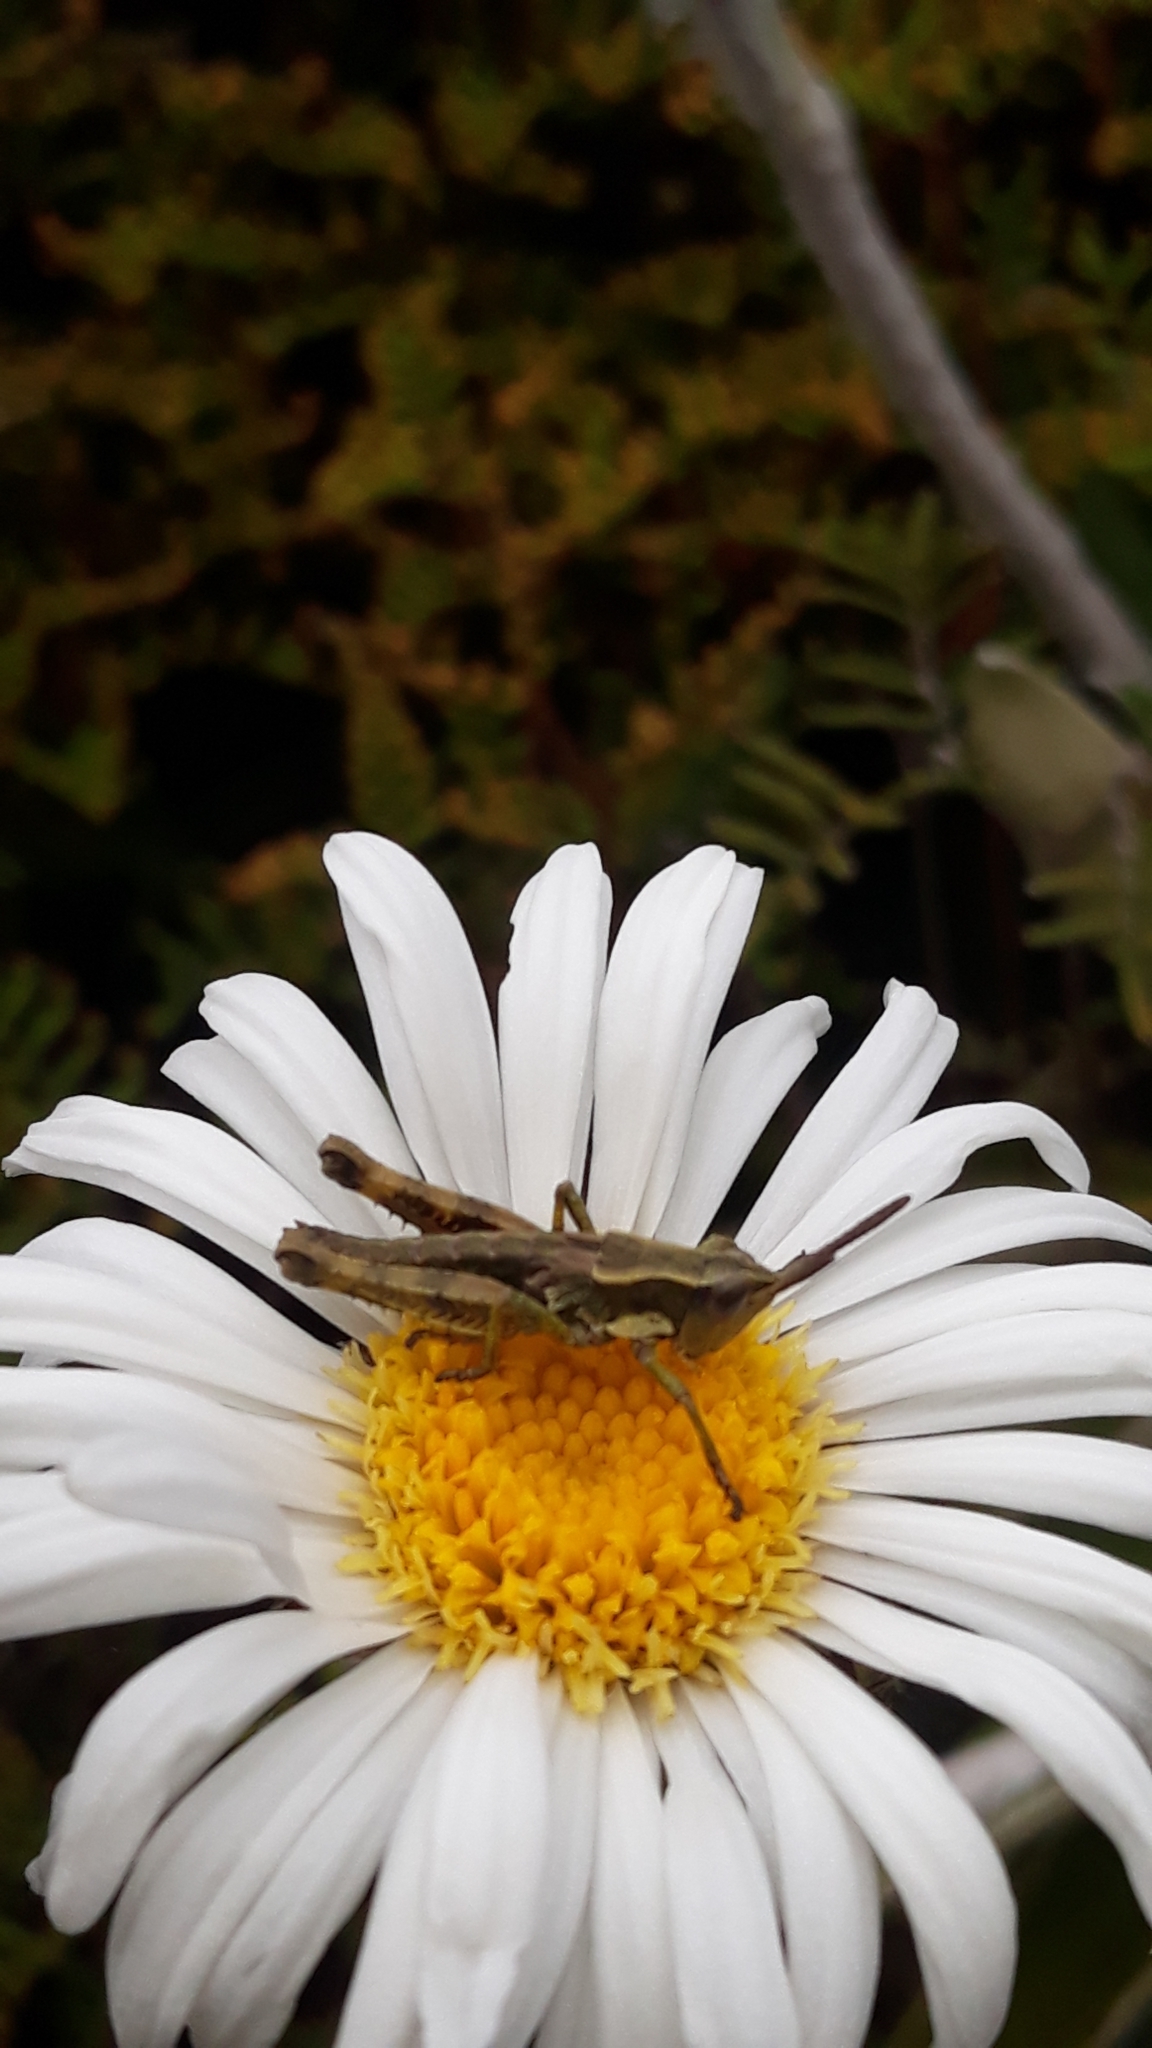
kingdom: Animalia
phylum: Arthropoda
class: Insecta
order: Orthoptera
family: Acrididae
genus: Sigaus
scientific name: Sigaus piliferus
